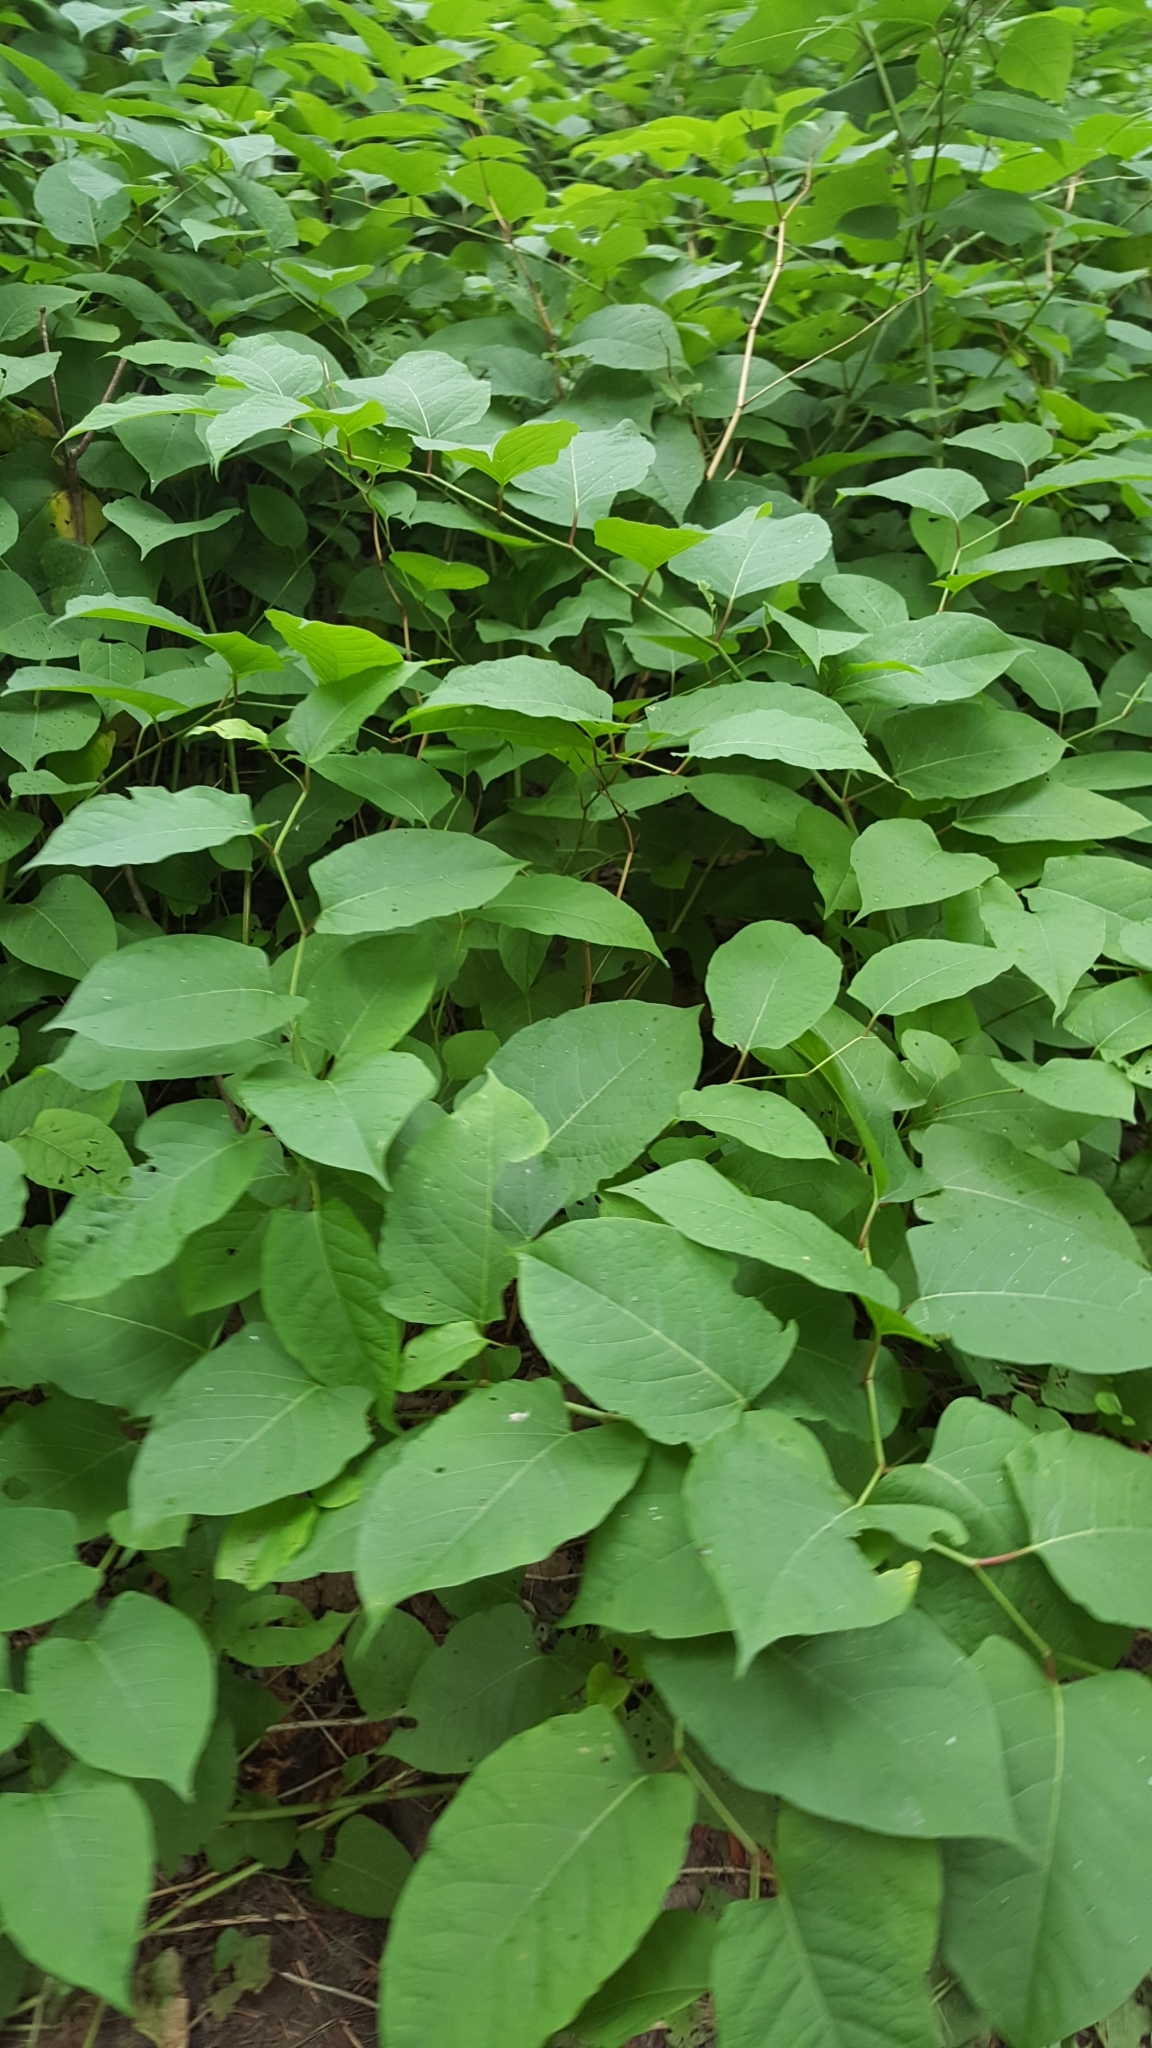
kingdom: Plantae
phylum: Tracheophyta
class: Magnoliopsida
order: Caryophyllales
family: Polygonaceae
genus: Reynoutria
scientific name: Reynoutria japonica
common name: Japanese knotweed
